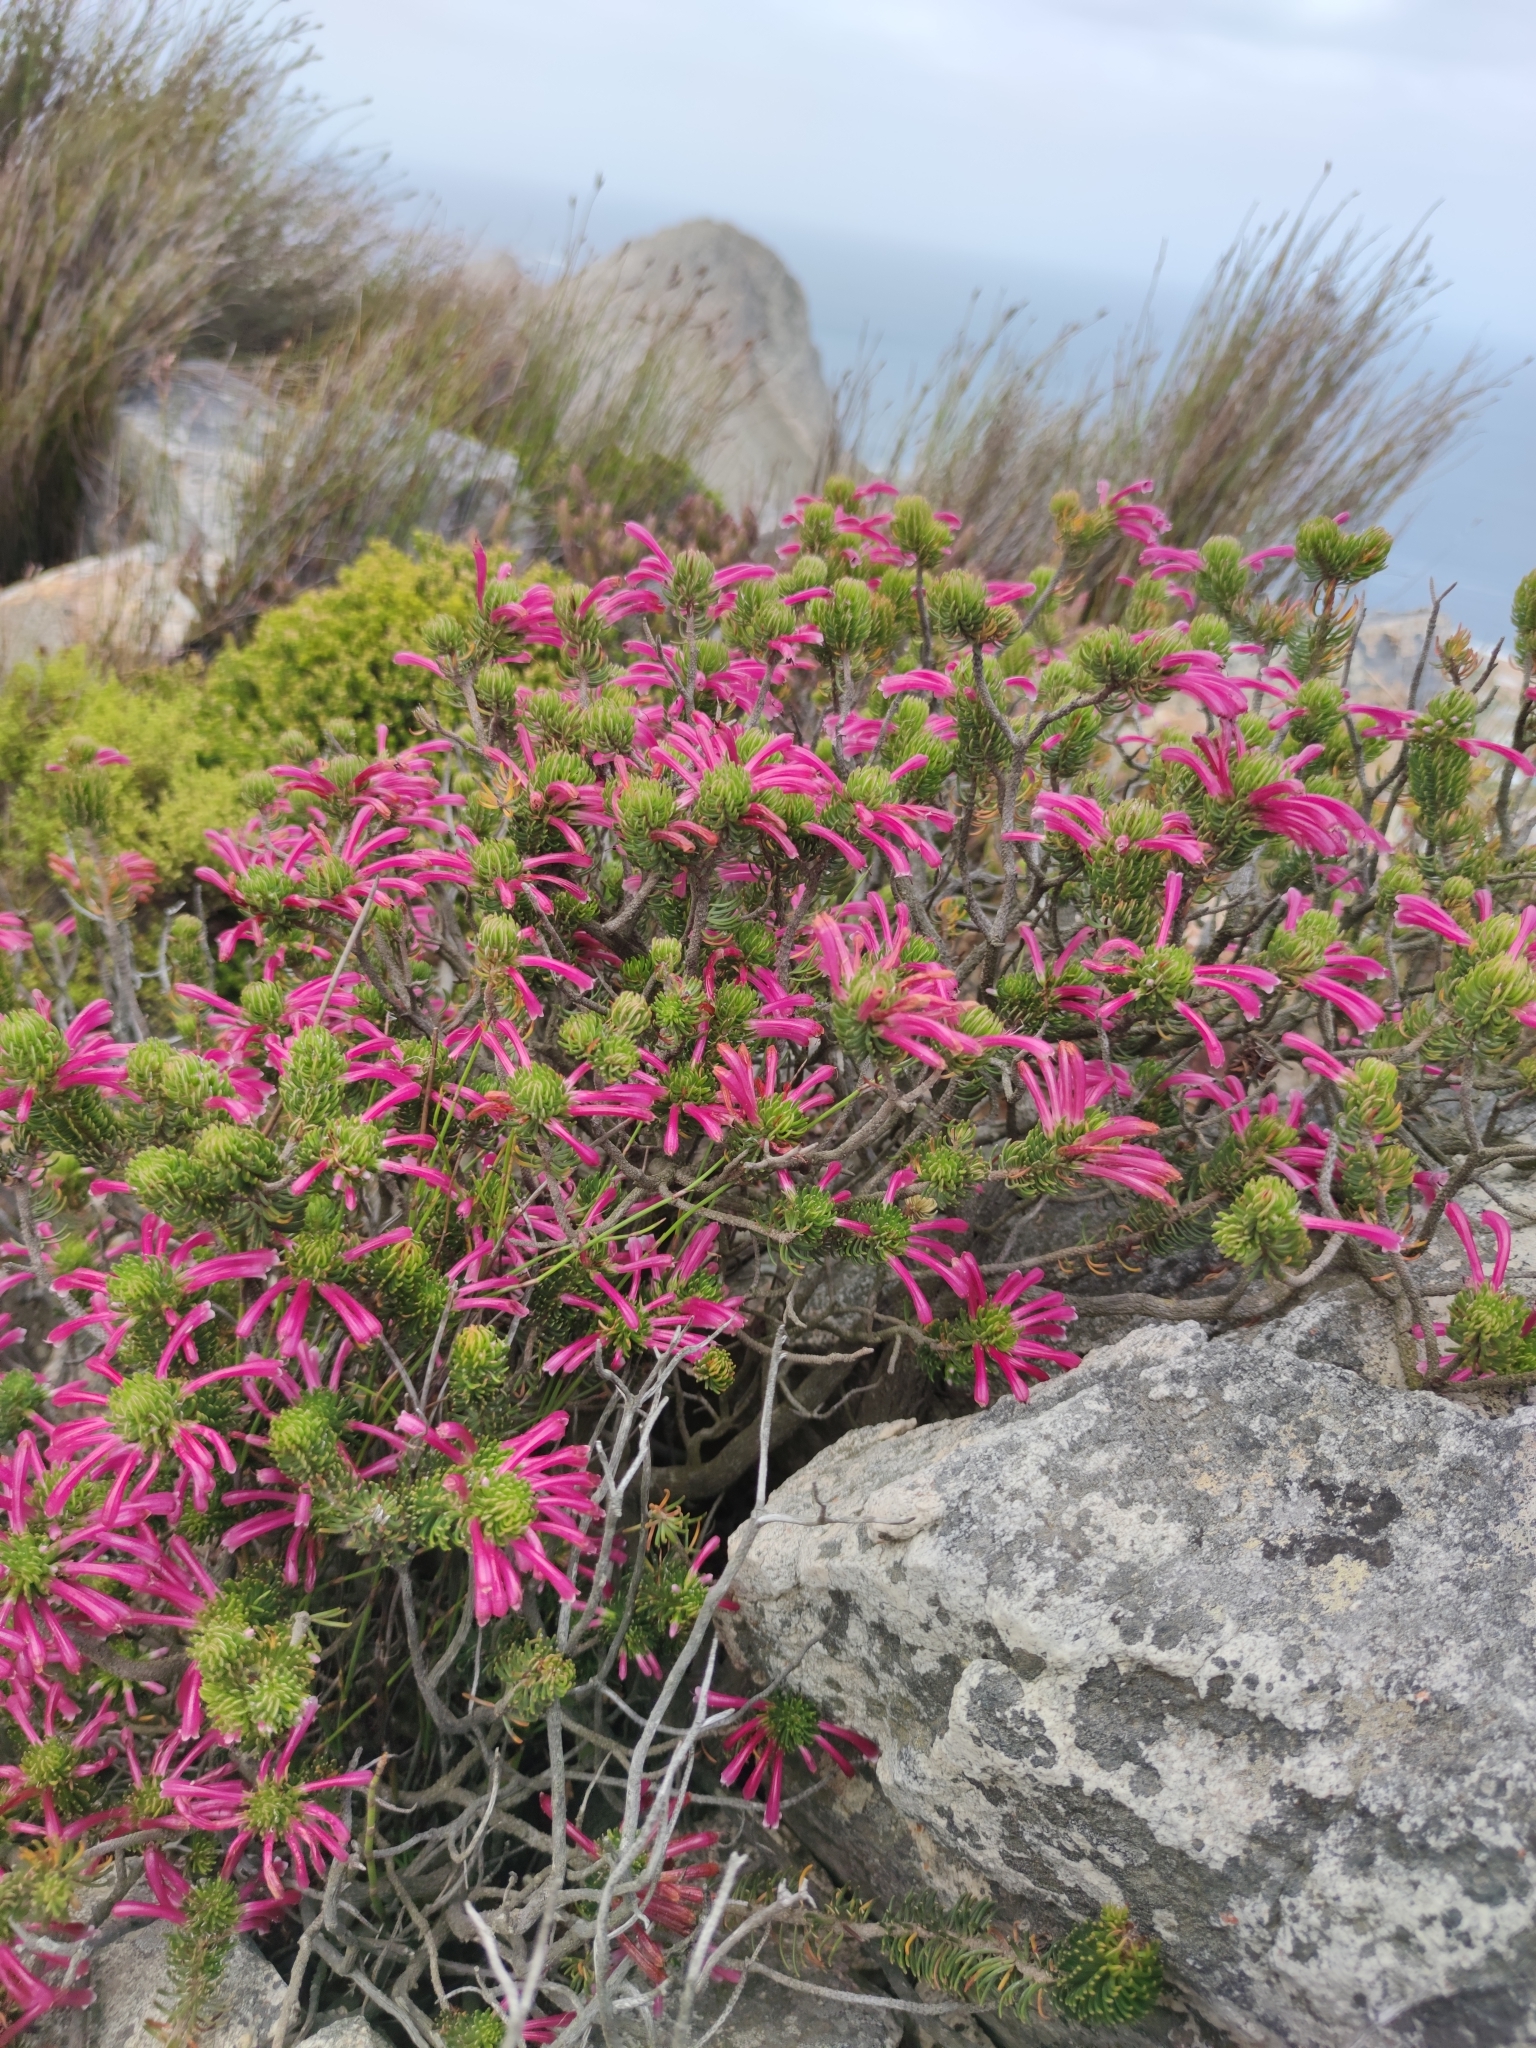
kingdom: Plantae
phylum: Tracheophyta
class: Magnoliopsida
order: Ericales
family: Ericaceae
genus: Erica
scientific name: Erica thomae
